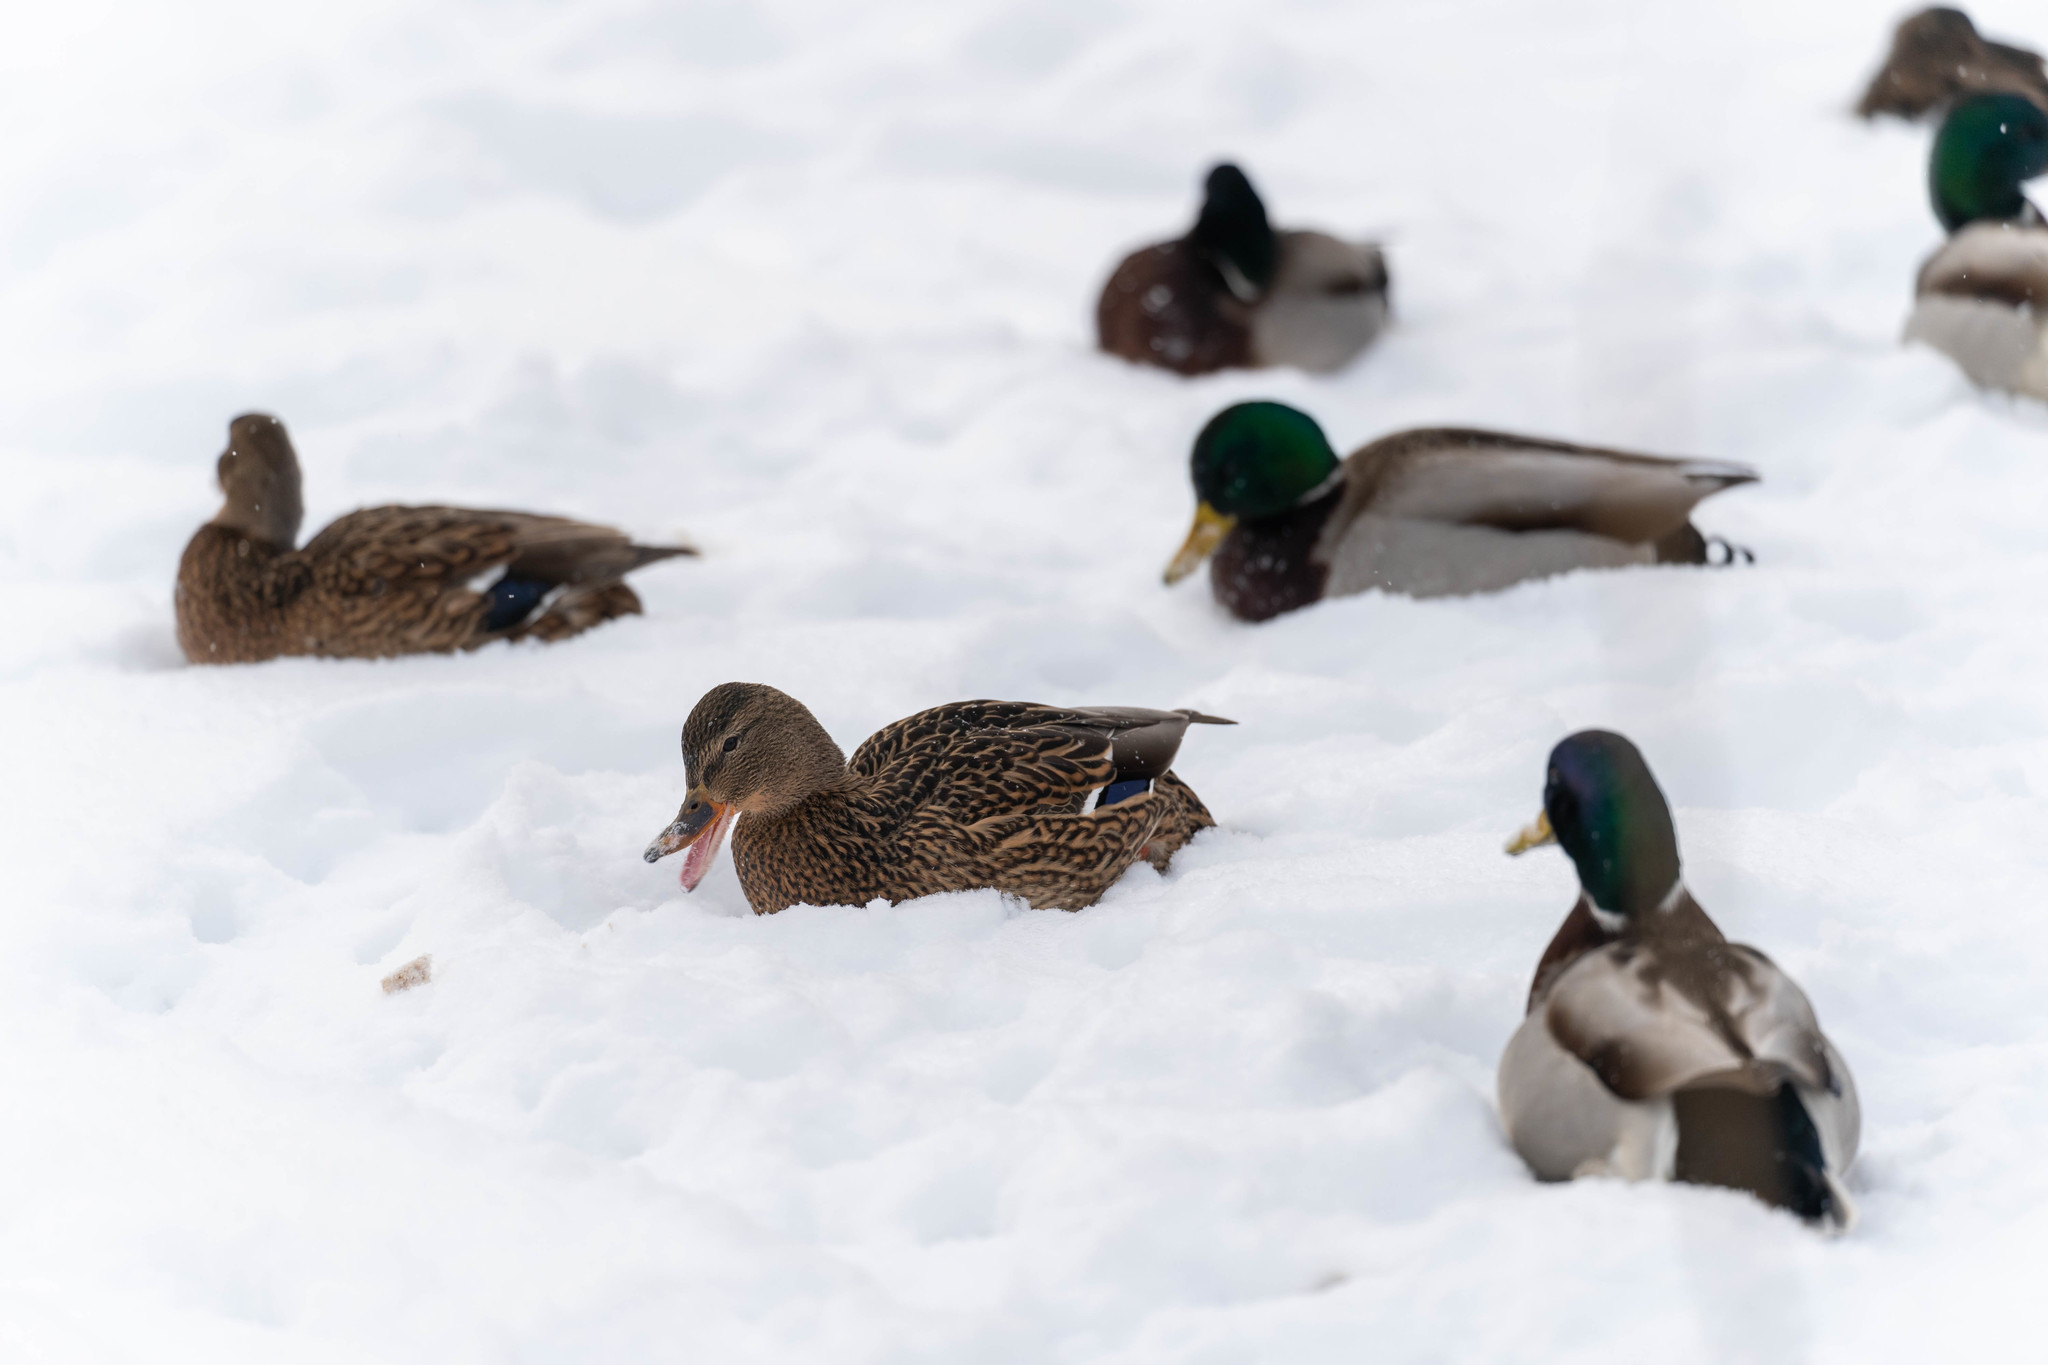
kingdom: Animalia
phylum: Chordata
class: Aves
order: Anseriformes
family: Anatidae
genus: Anas
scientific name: Anas platyrhynchos
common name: Mallard
